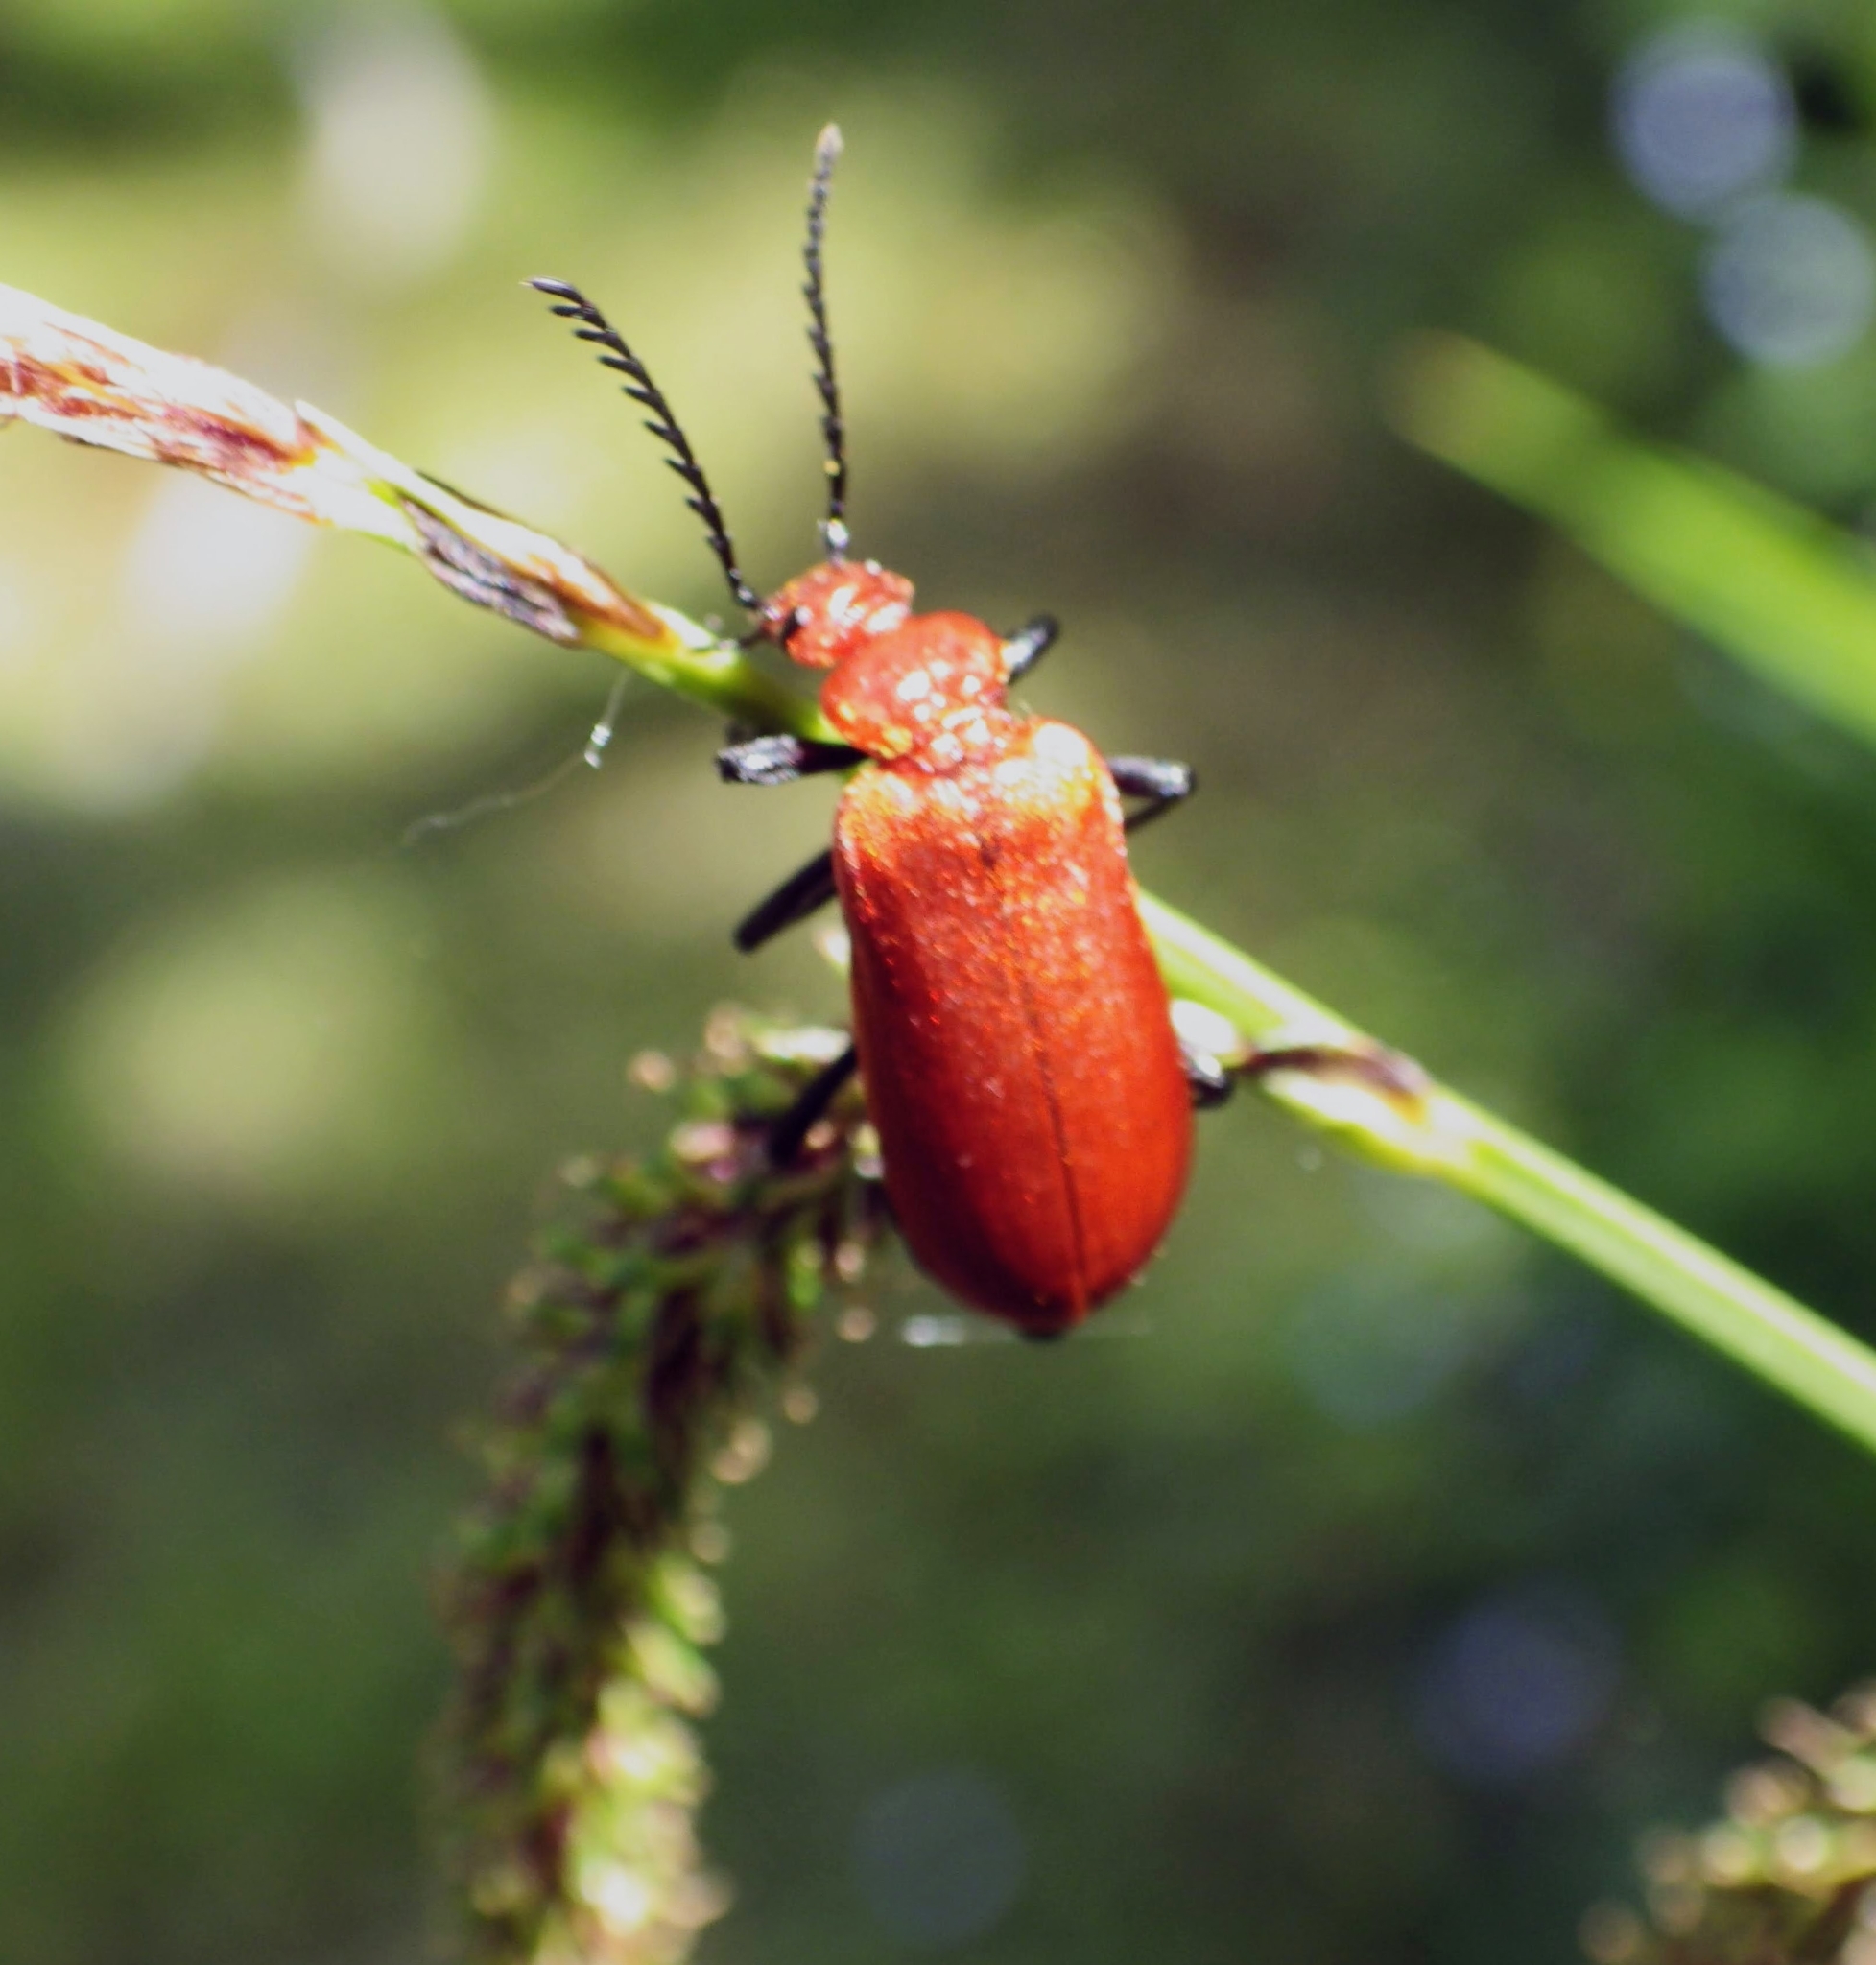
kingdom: Animalia
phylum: Arthropoda
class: Insecta
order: Coleoptera
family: Pyrochroidae
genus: Pyrochroa
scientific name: Pyrochroa serraticornis
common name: Red-headed cardinal beetle
